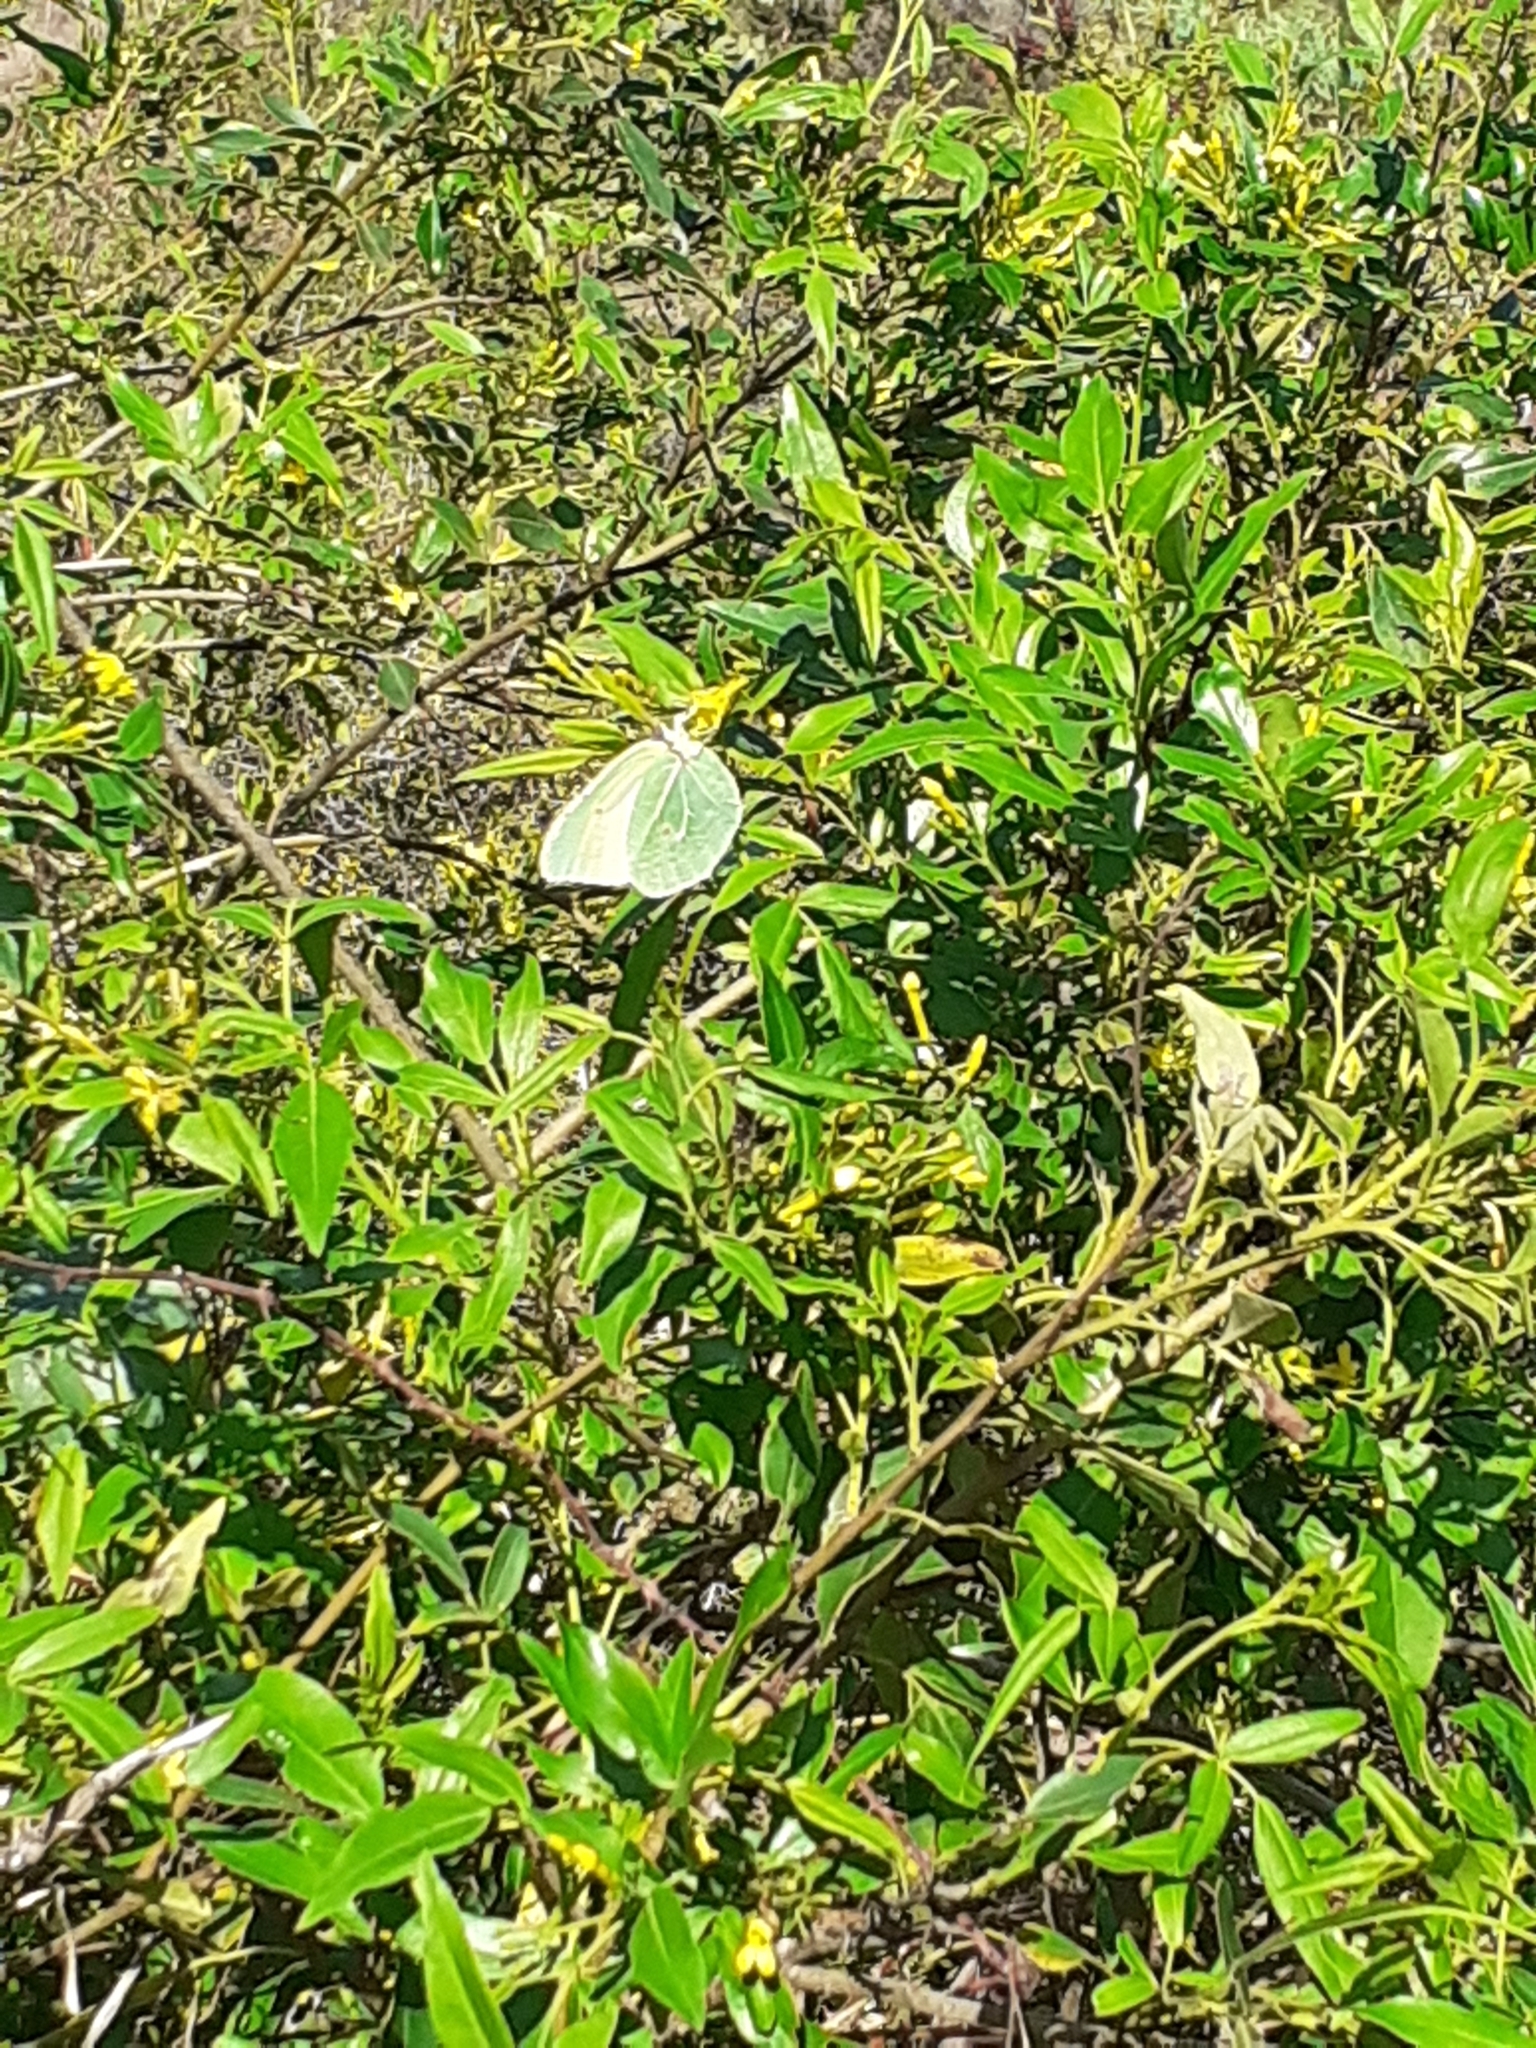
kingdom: Animalia
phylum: Arthropoda
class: Insecta
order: Lepidoptera
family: Pieridae
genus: Gonepteryx
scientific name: Gonepteryx cleobule
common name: Canary brimstone
